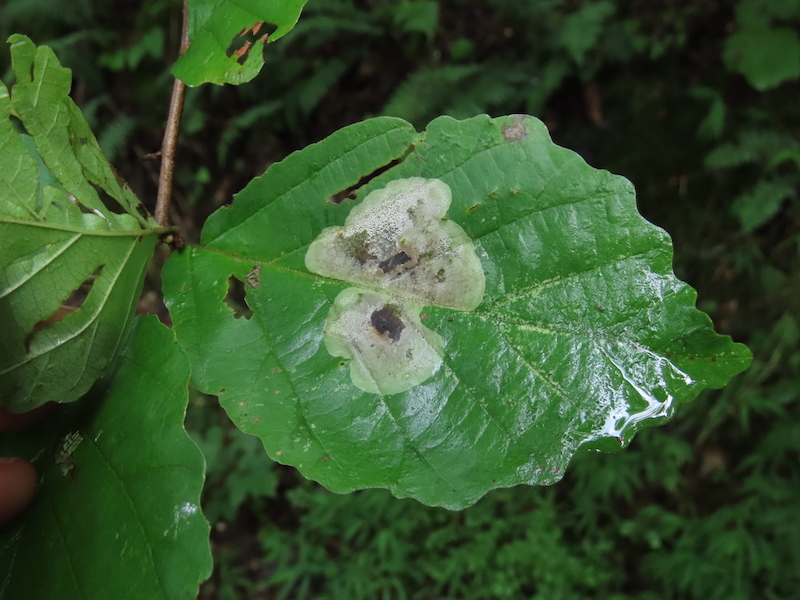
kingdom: Animalia
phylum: Arthropoda
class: Insecta
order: Lepidoptera
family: Gracillariidae
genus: Cameraria
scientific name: Cameraria hamameliella
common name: Witchhazel leafminer
